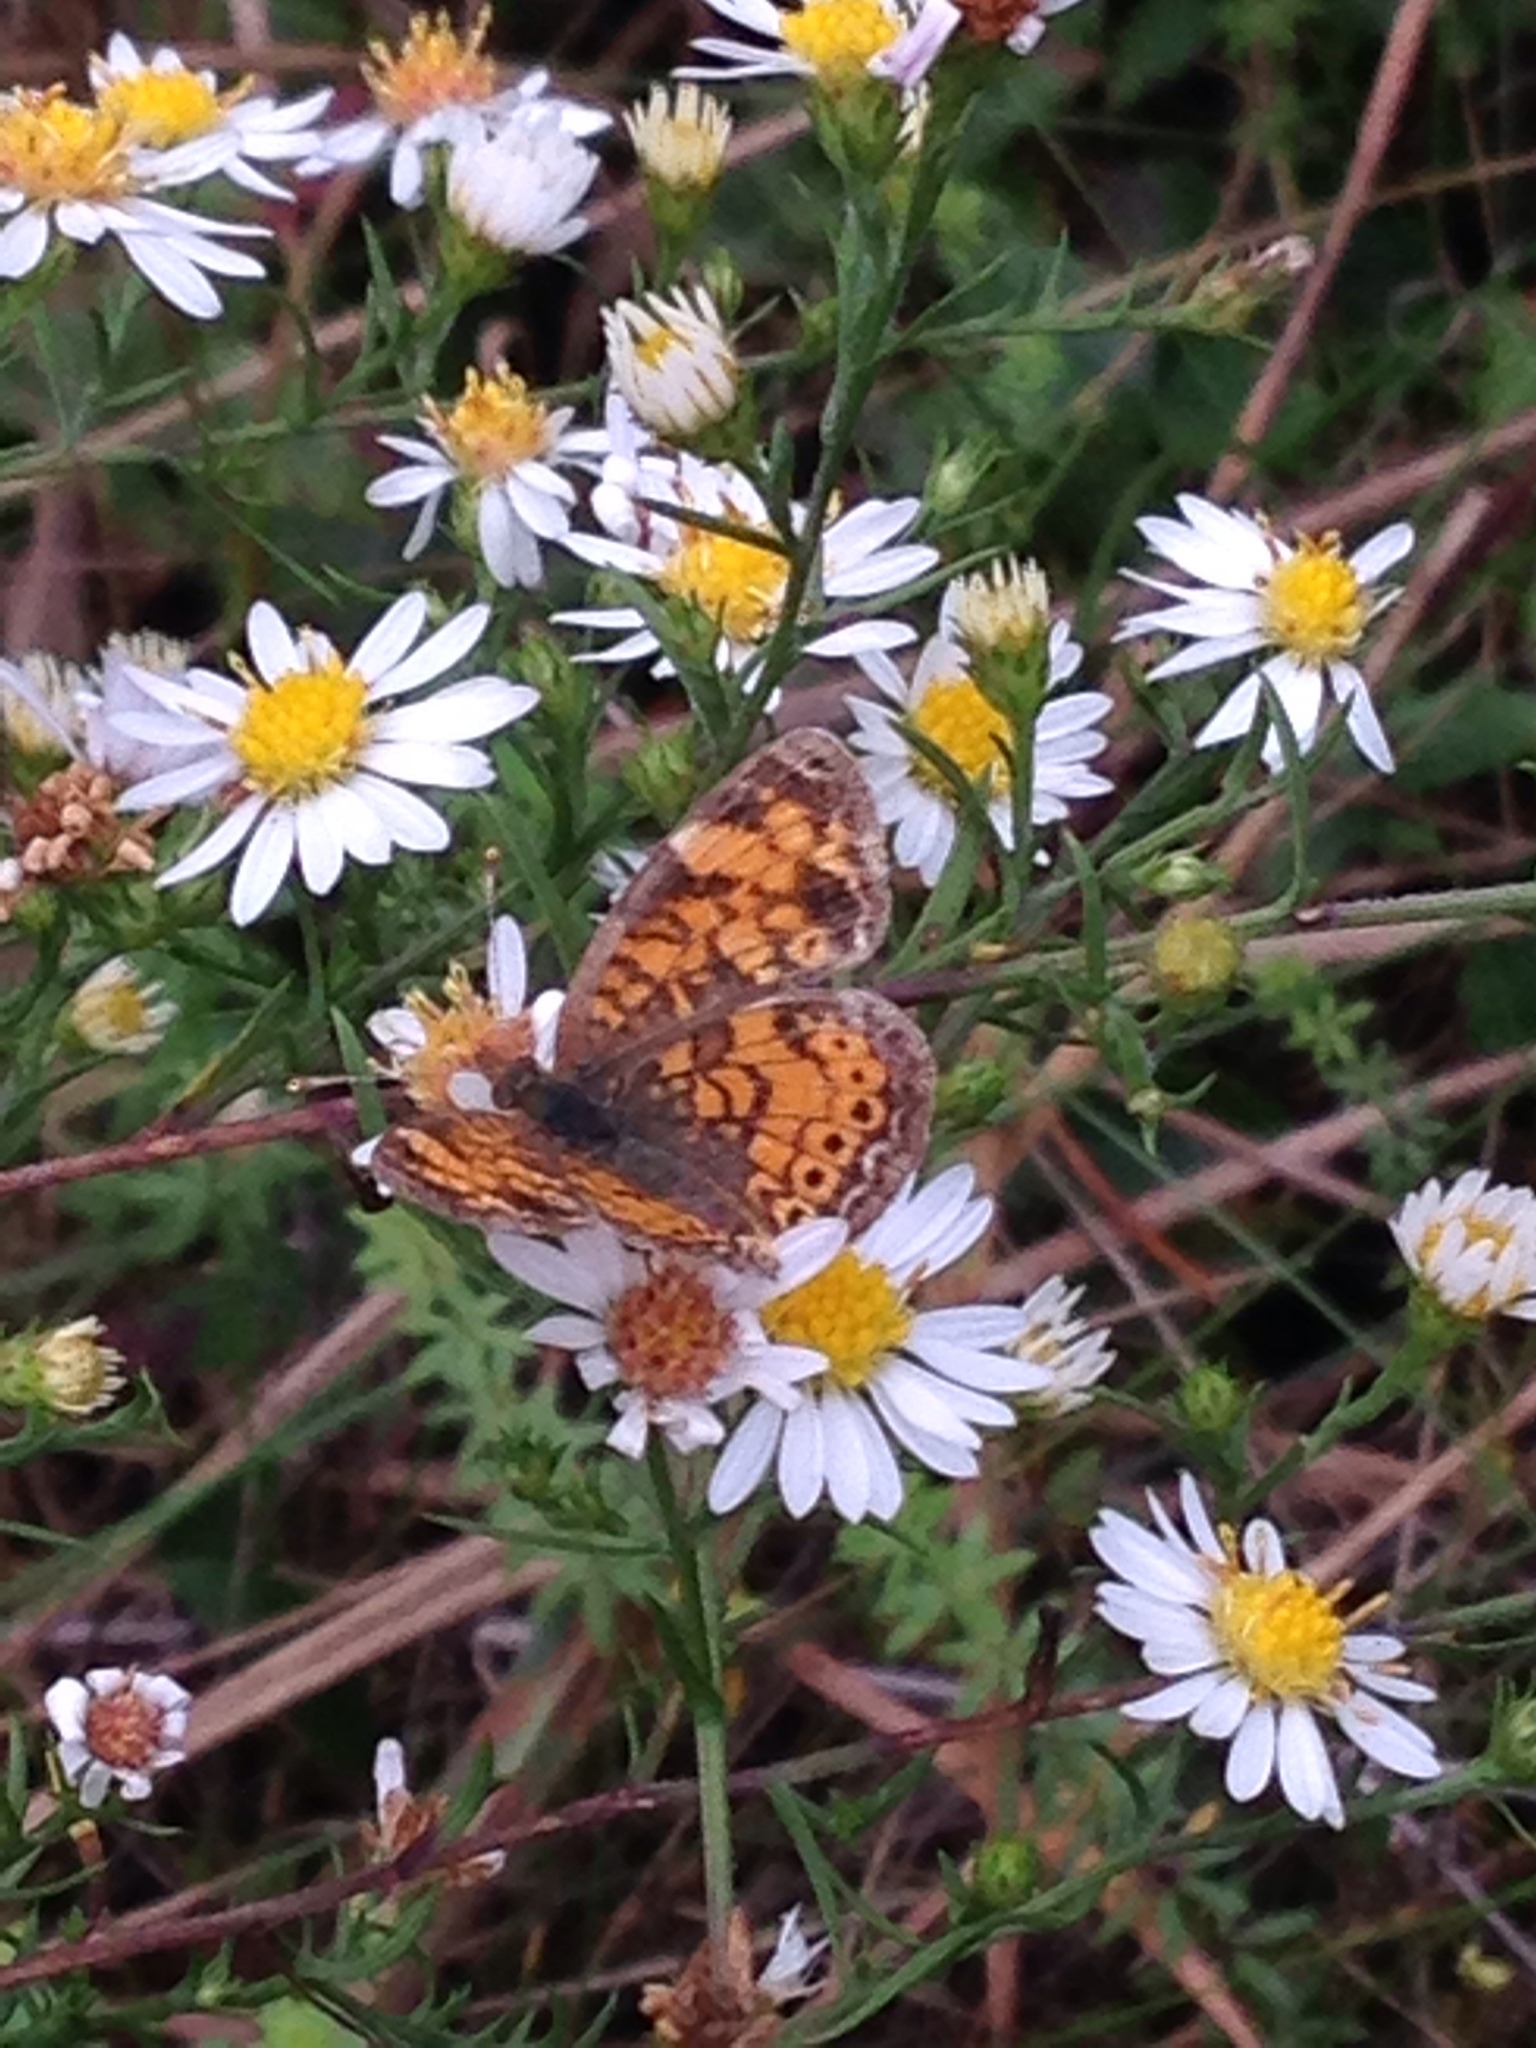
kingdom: Animalia
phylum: Arthropoda
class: Insecta
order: Lepidoptera
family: Nymphalidae
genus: Phyciodes
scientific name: Phyciodes tharos
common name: Pearl crescent
